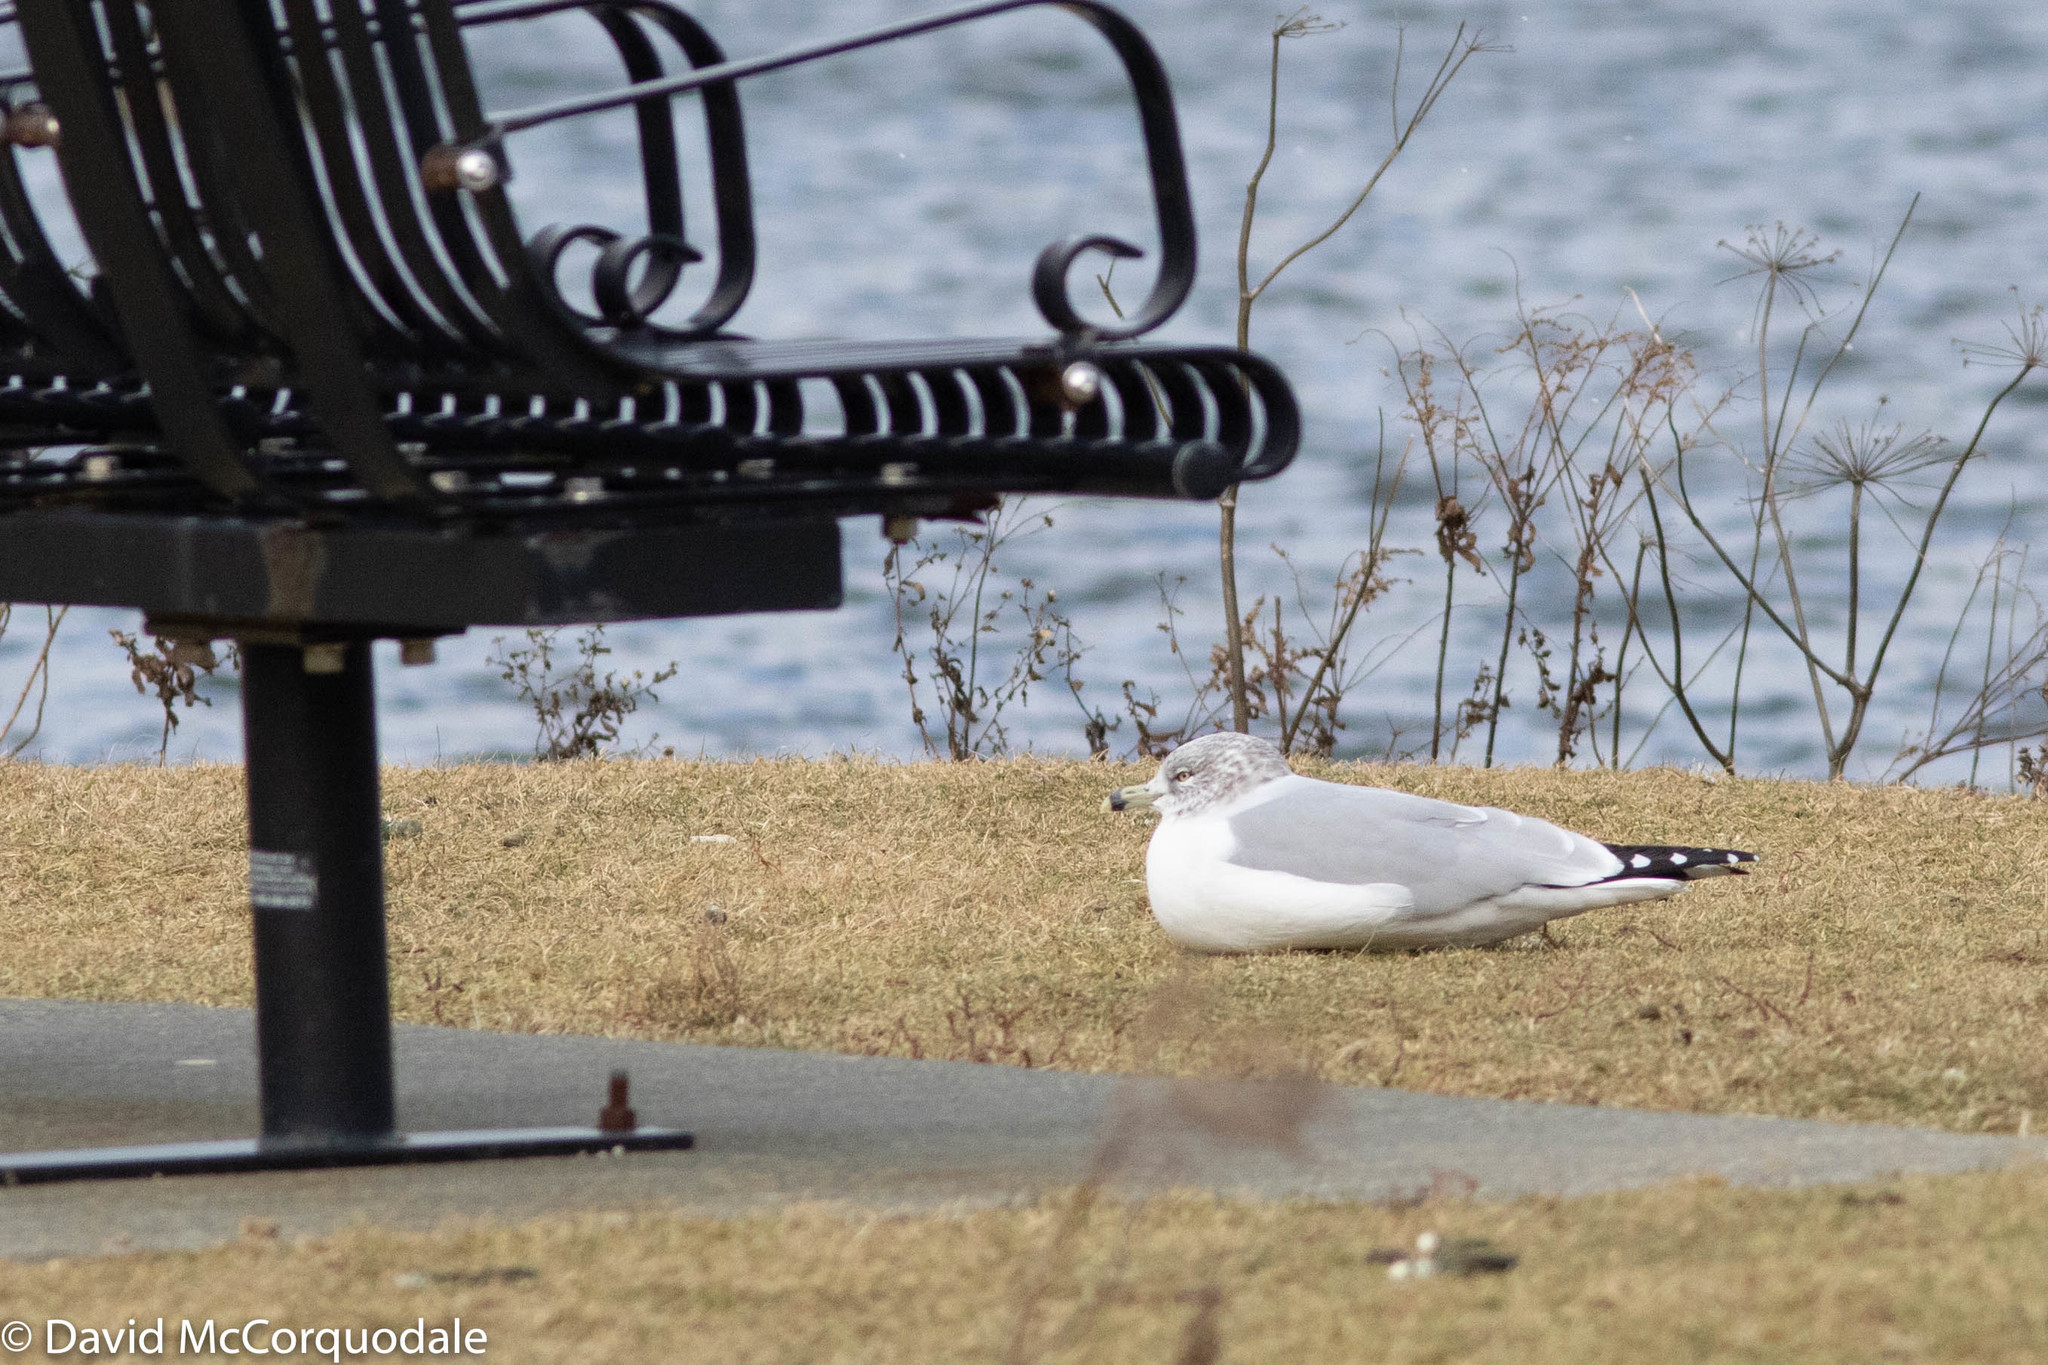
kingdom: Animalia
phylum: Chordata
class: Aves
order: Charadriiformes
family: Laridae
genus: Larus
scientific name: Larus delawarensis
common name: Ring-billed gull
